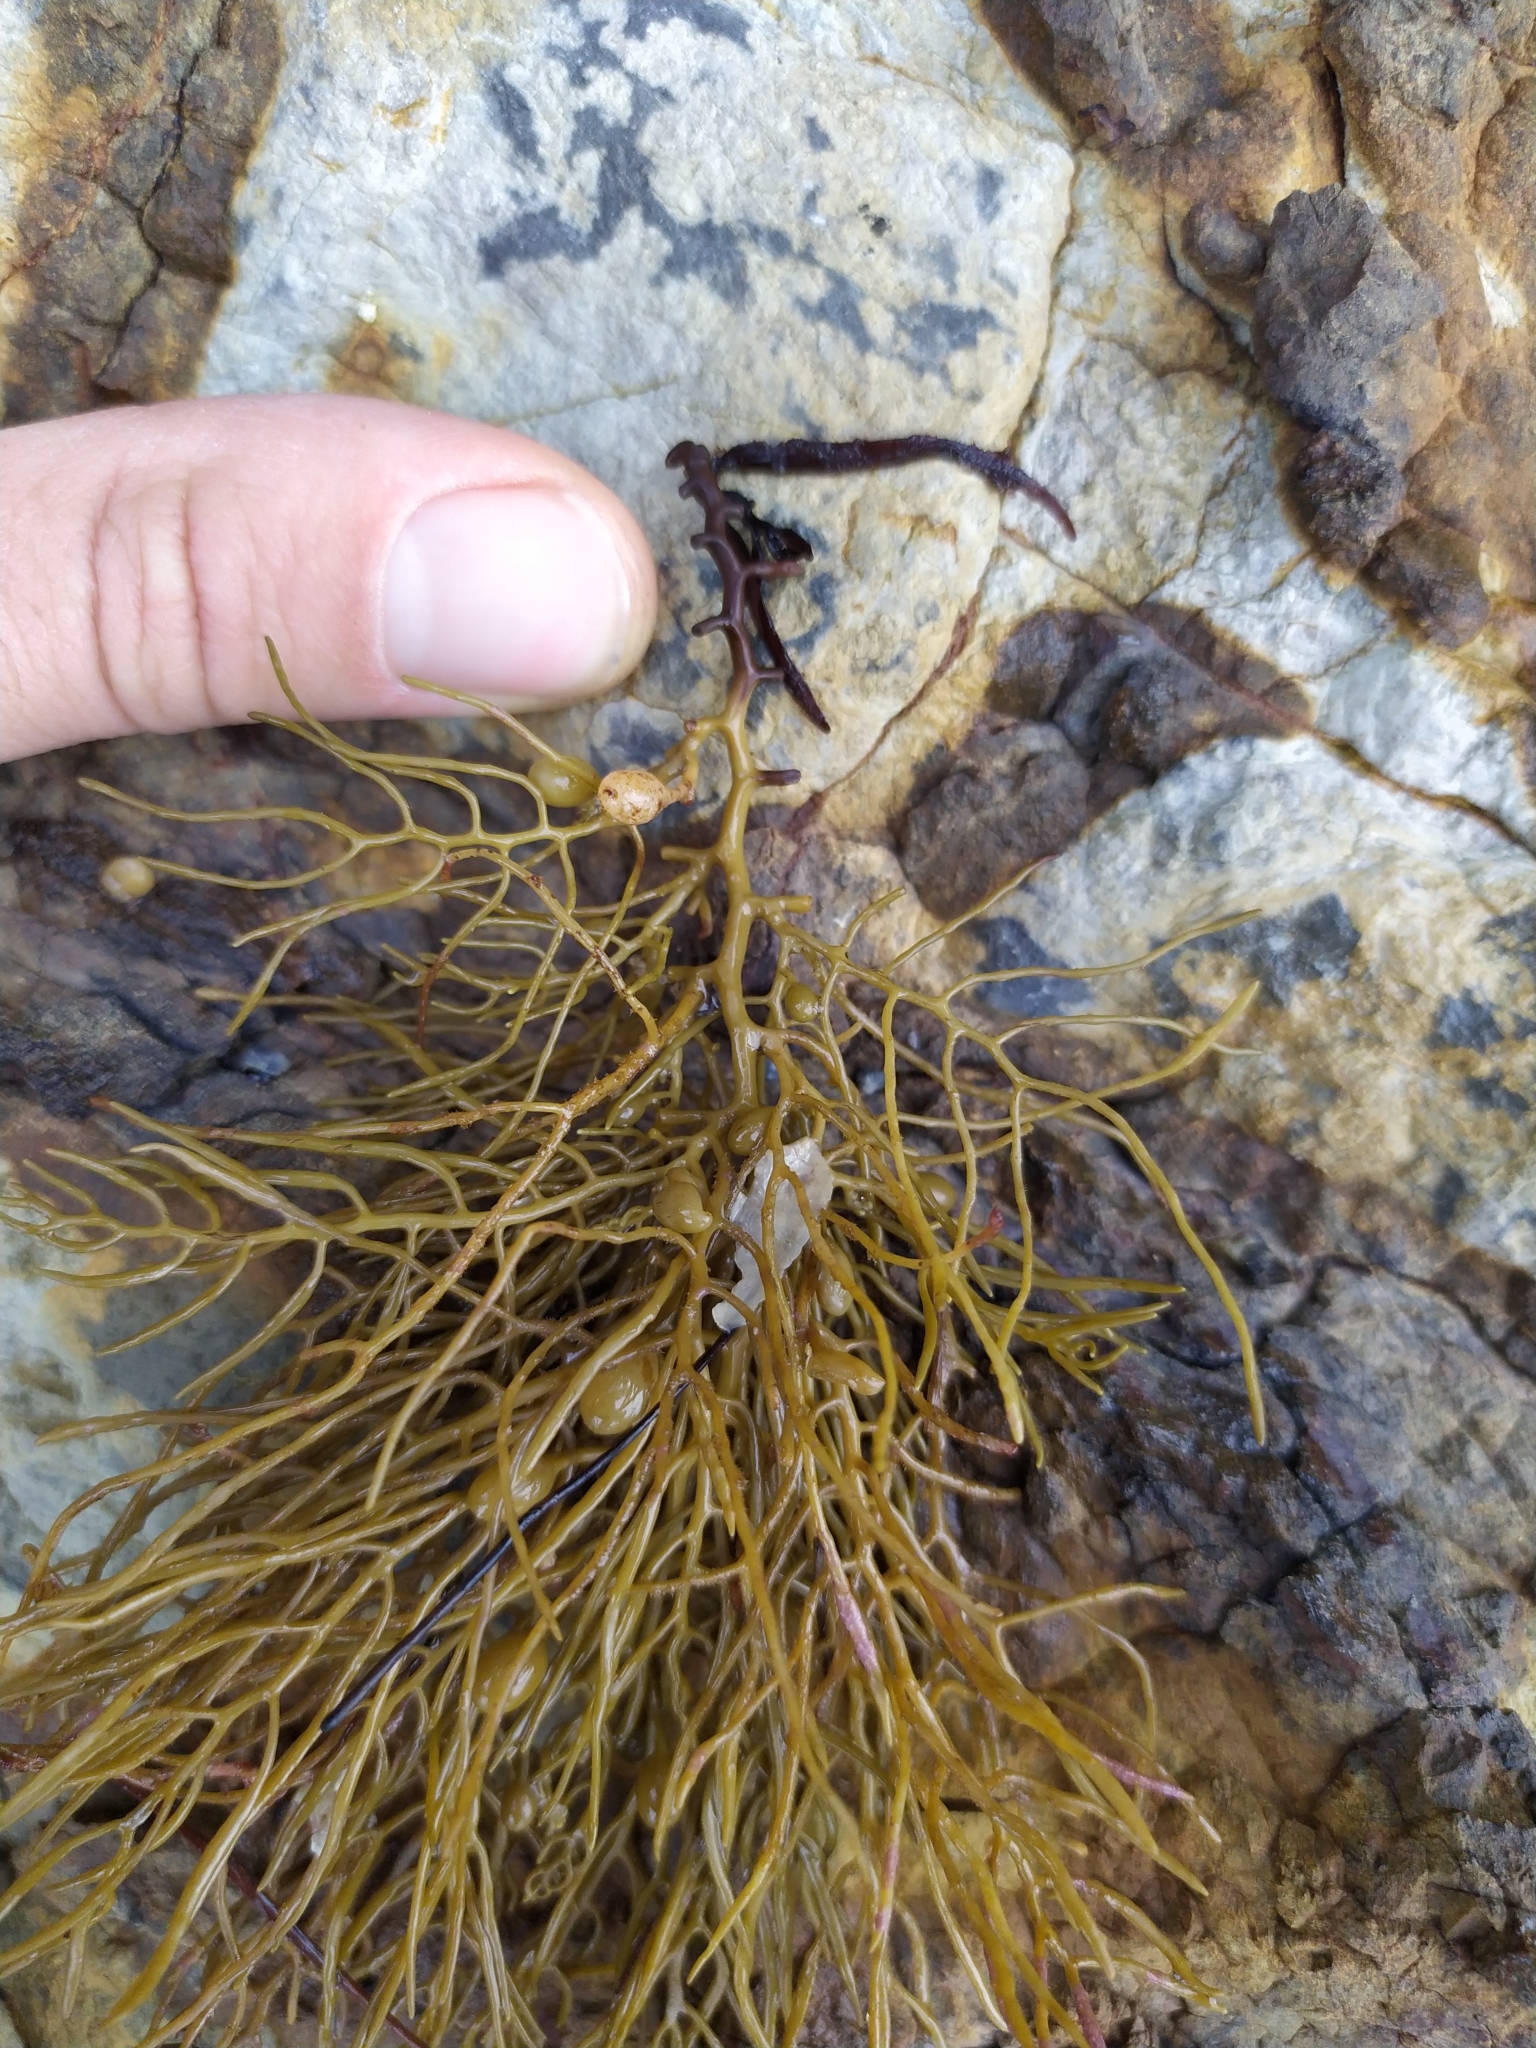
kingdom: Chromista
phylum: Ochrophyta
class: Phaeophyceae
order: Fucales
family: Sargassaceae
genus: Cystophora
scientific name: Cystophora retroflexa
